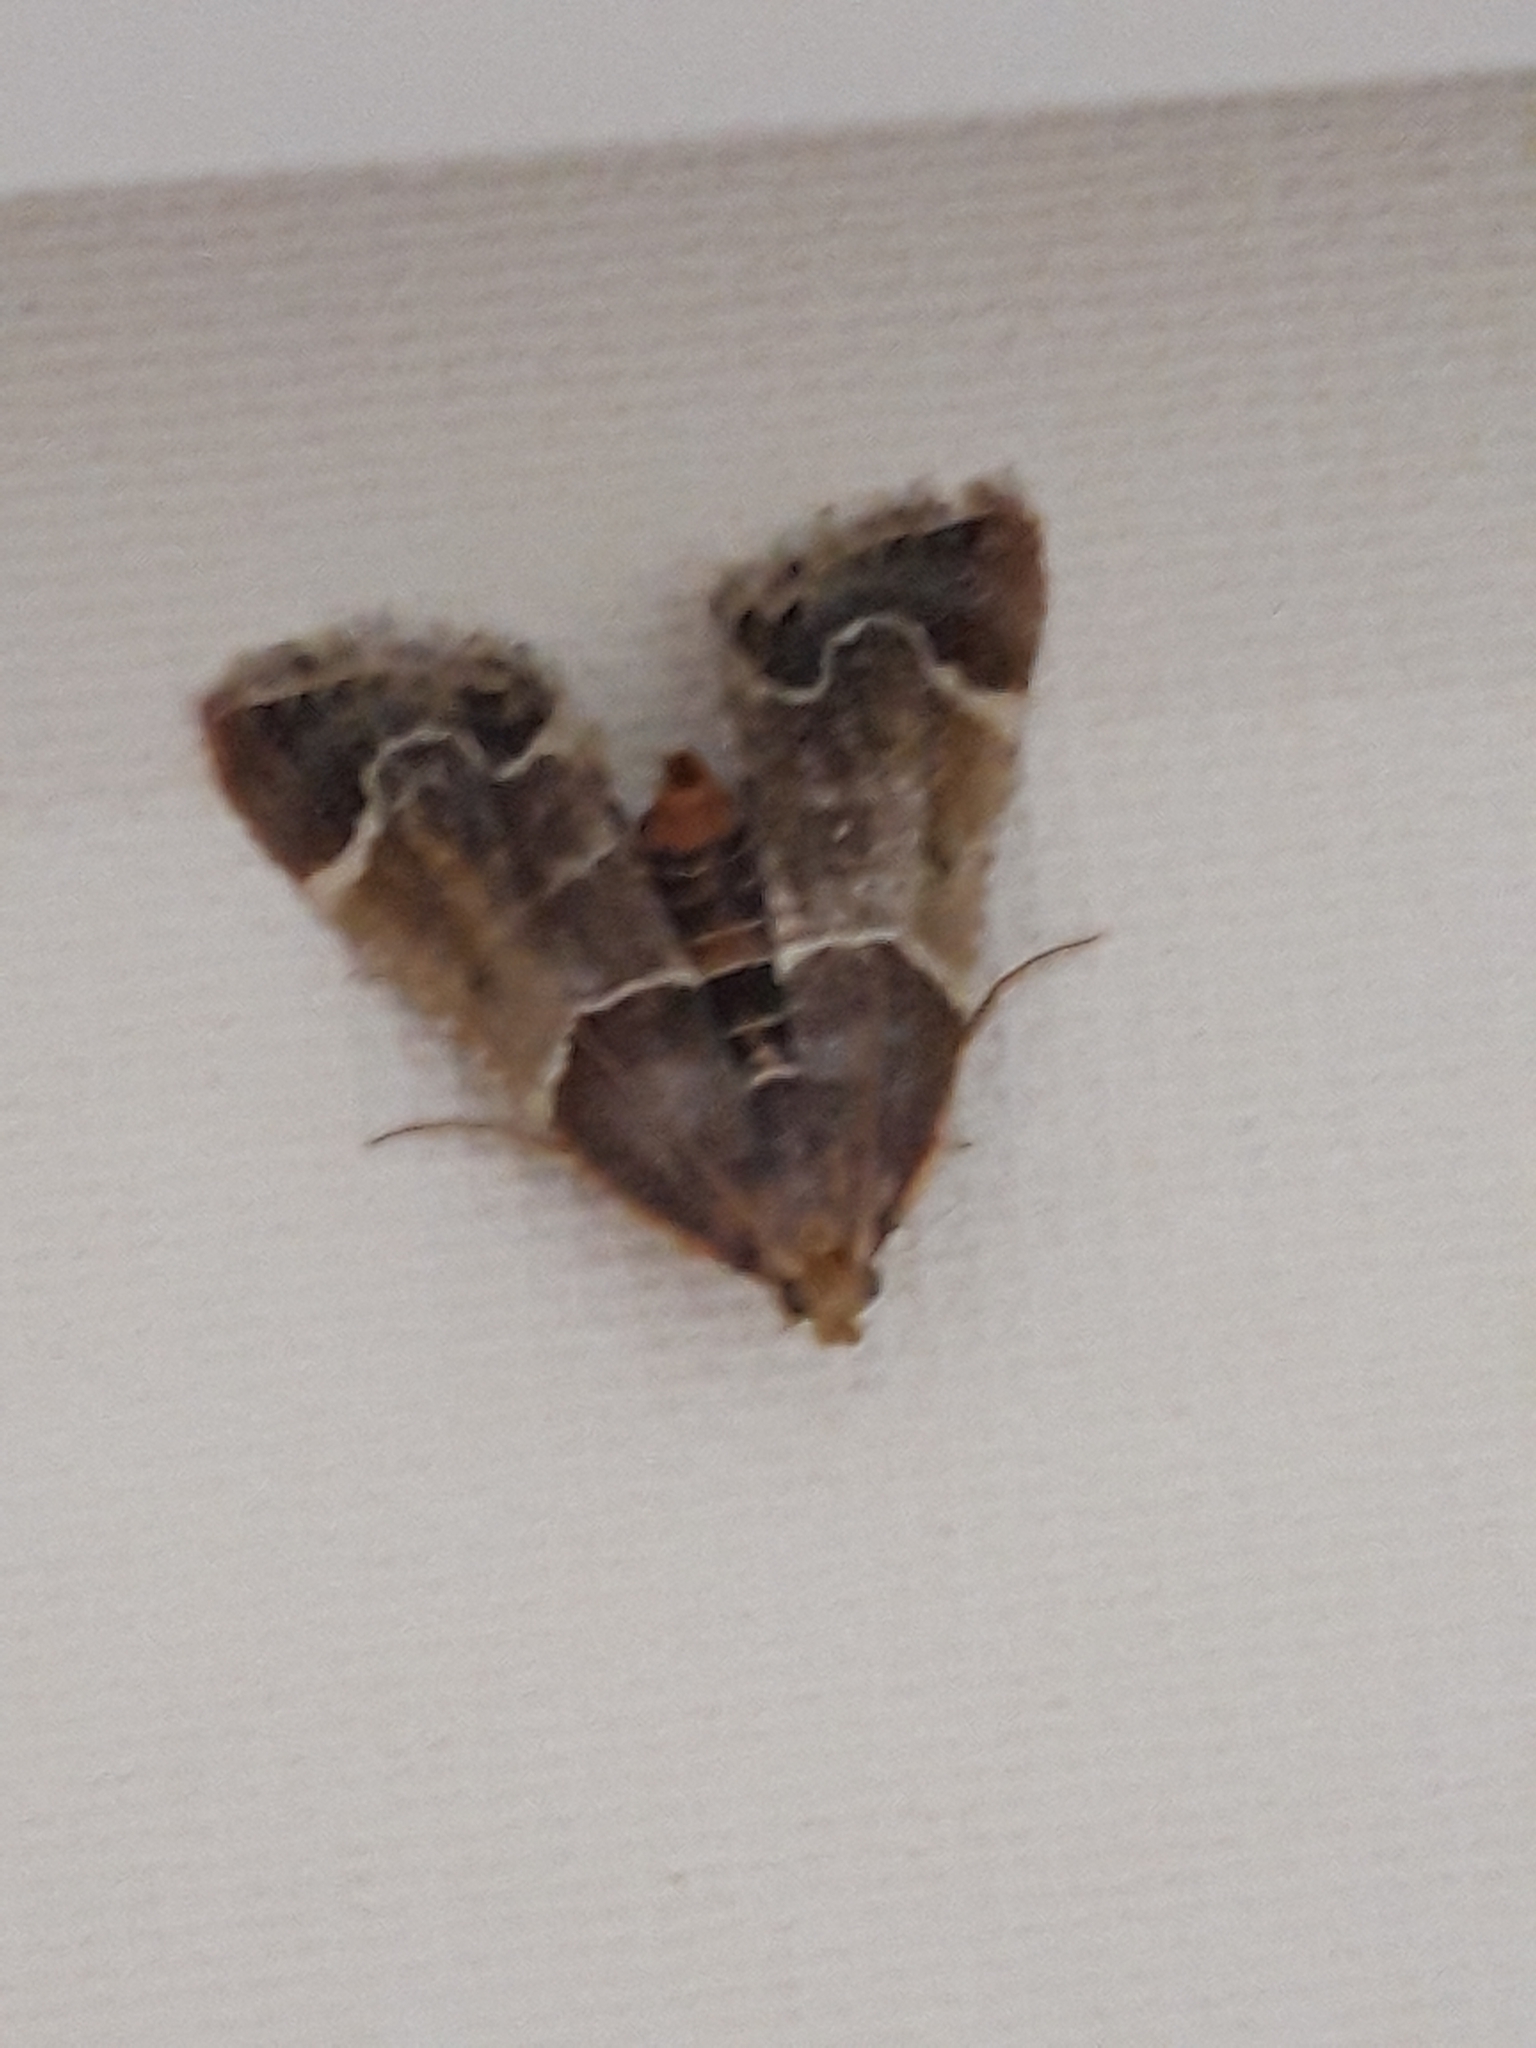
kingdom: Animalia
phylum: Arthropoda
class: Insecta
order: Lepidoptera
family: Pyralidae
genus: Pyralis
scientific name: Pyralis farinalis
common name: Meal moth
